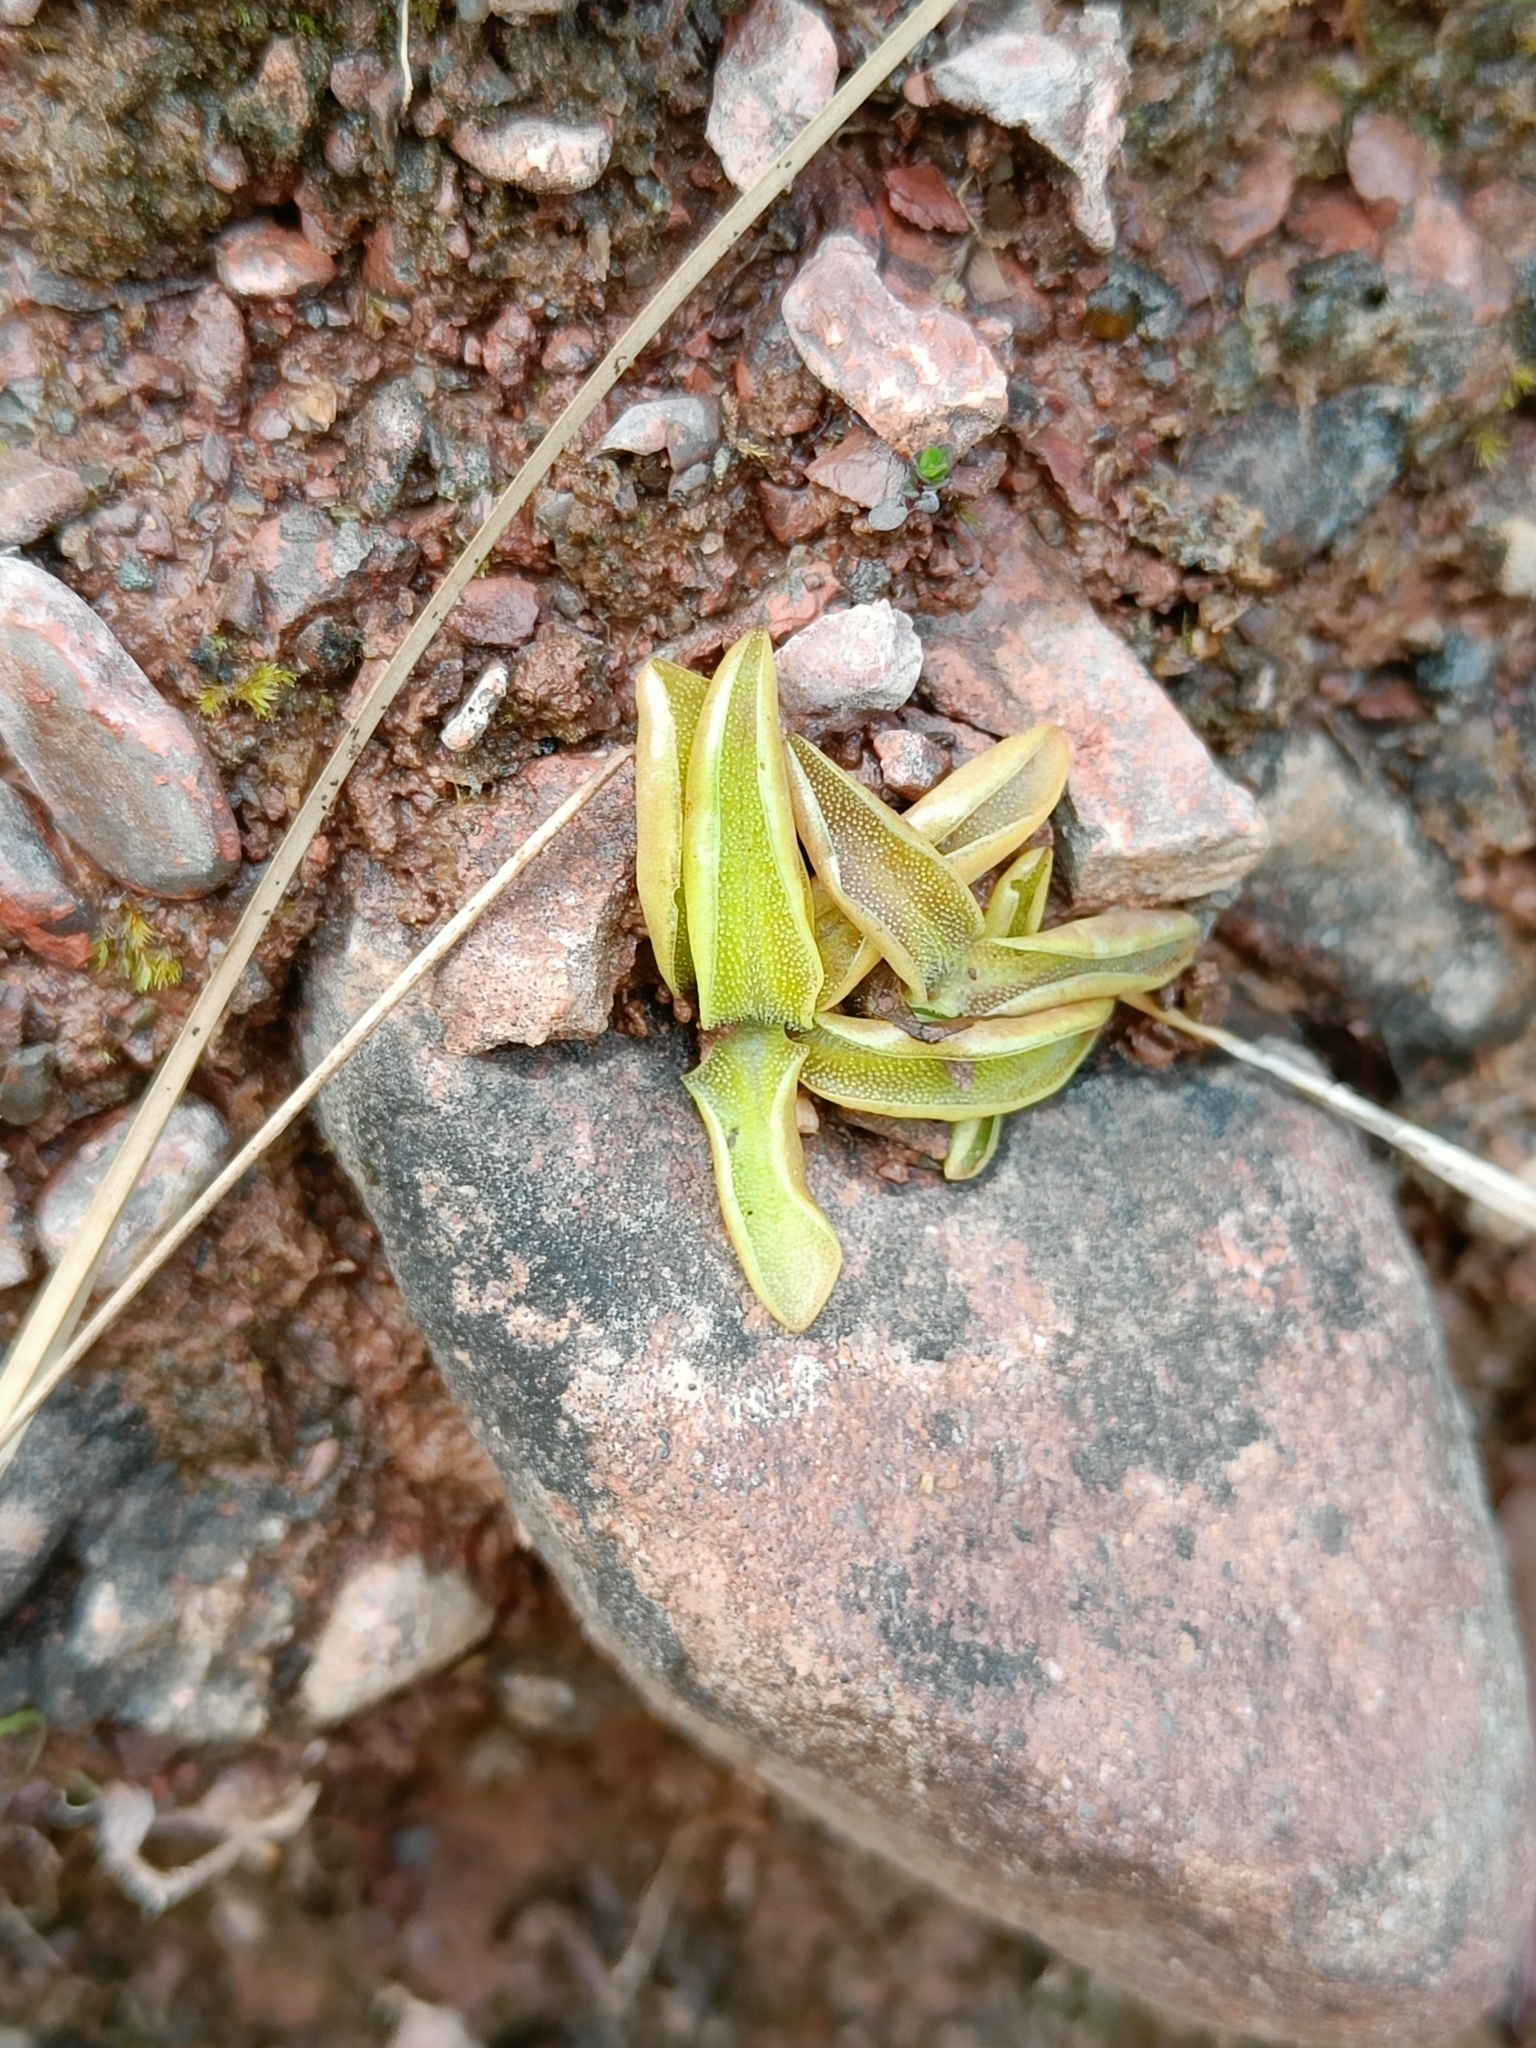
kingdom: Plantae
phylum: Tracheophyta
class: Magnoliopsida
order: Lamiales
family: Lentibulariaceae
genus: Pinguicula
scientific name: Pinguicula vulgaris
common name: Common butterwort
